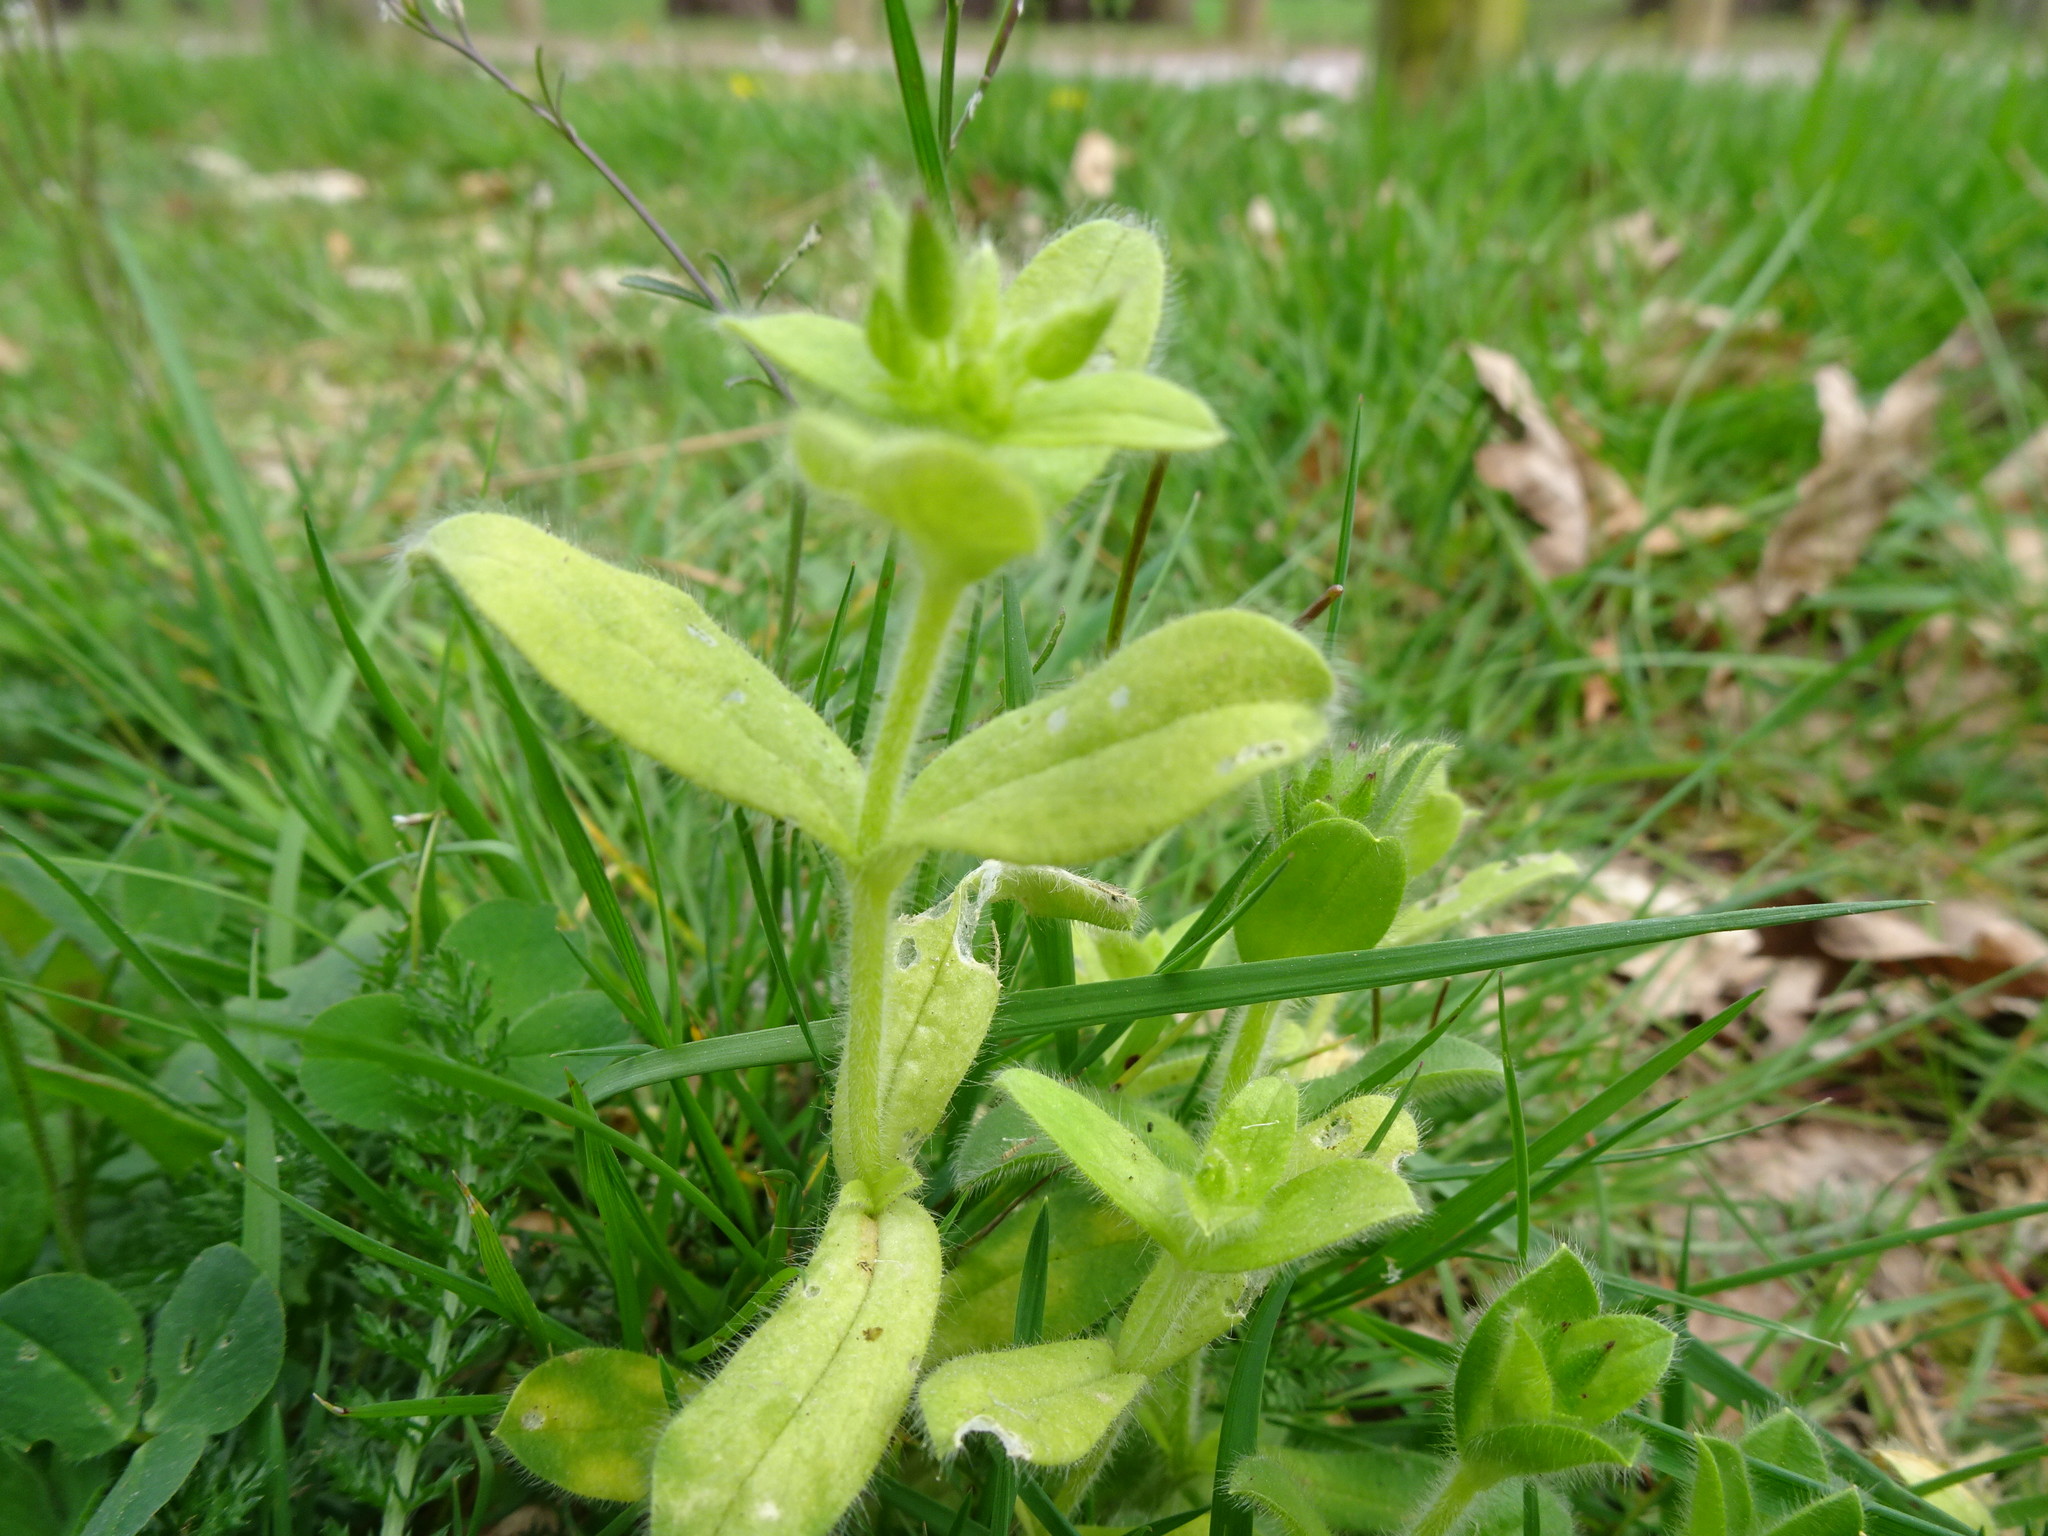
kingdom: Plantae
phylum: Tracheophyta
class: Magnoliopsida
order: Caryophyllales
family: Caryophyllaceae
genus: Cerastium
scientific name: Cerastium glomeratum
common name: Sticky chickweed
